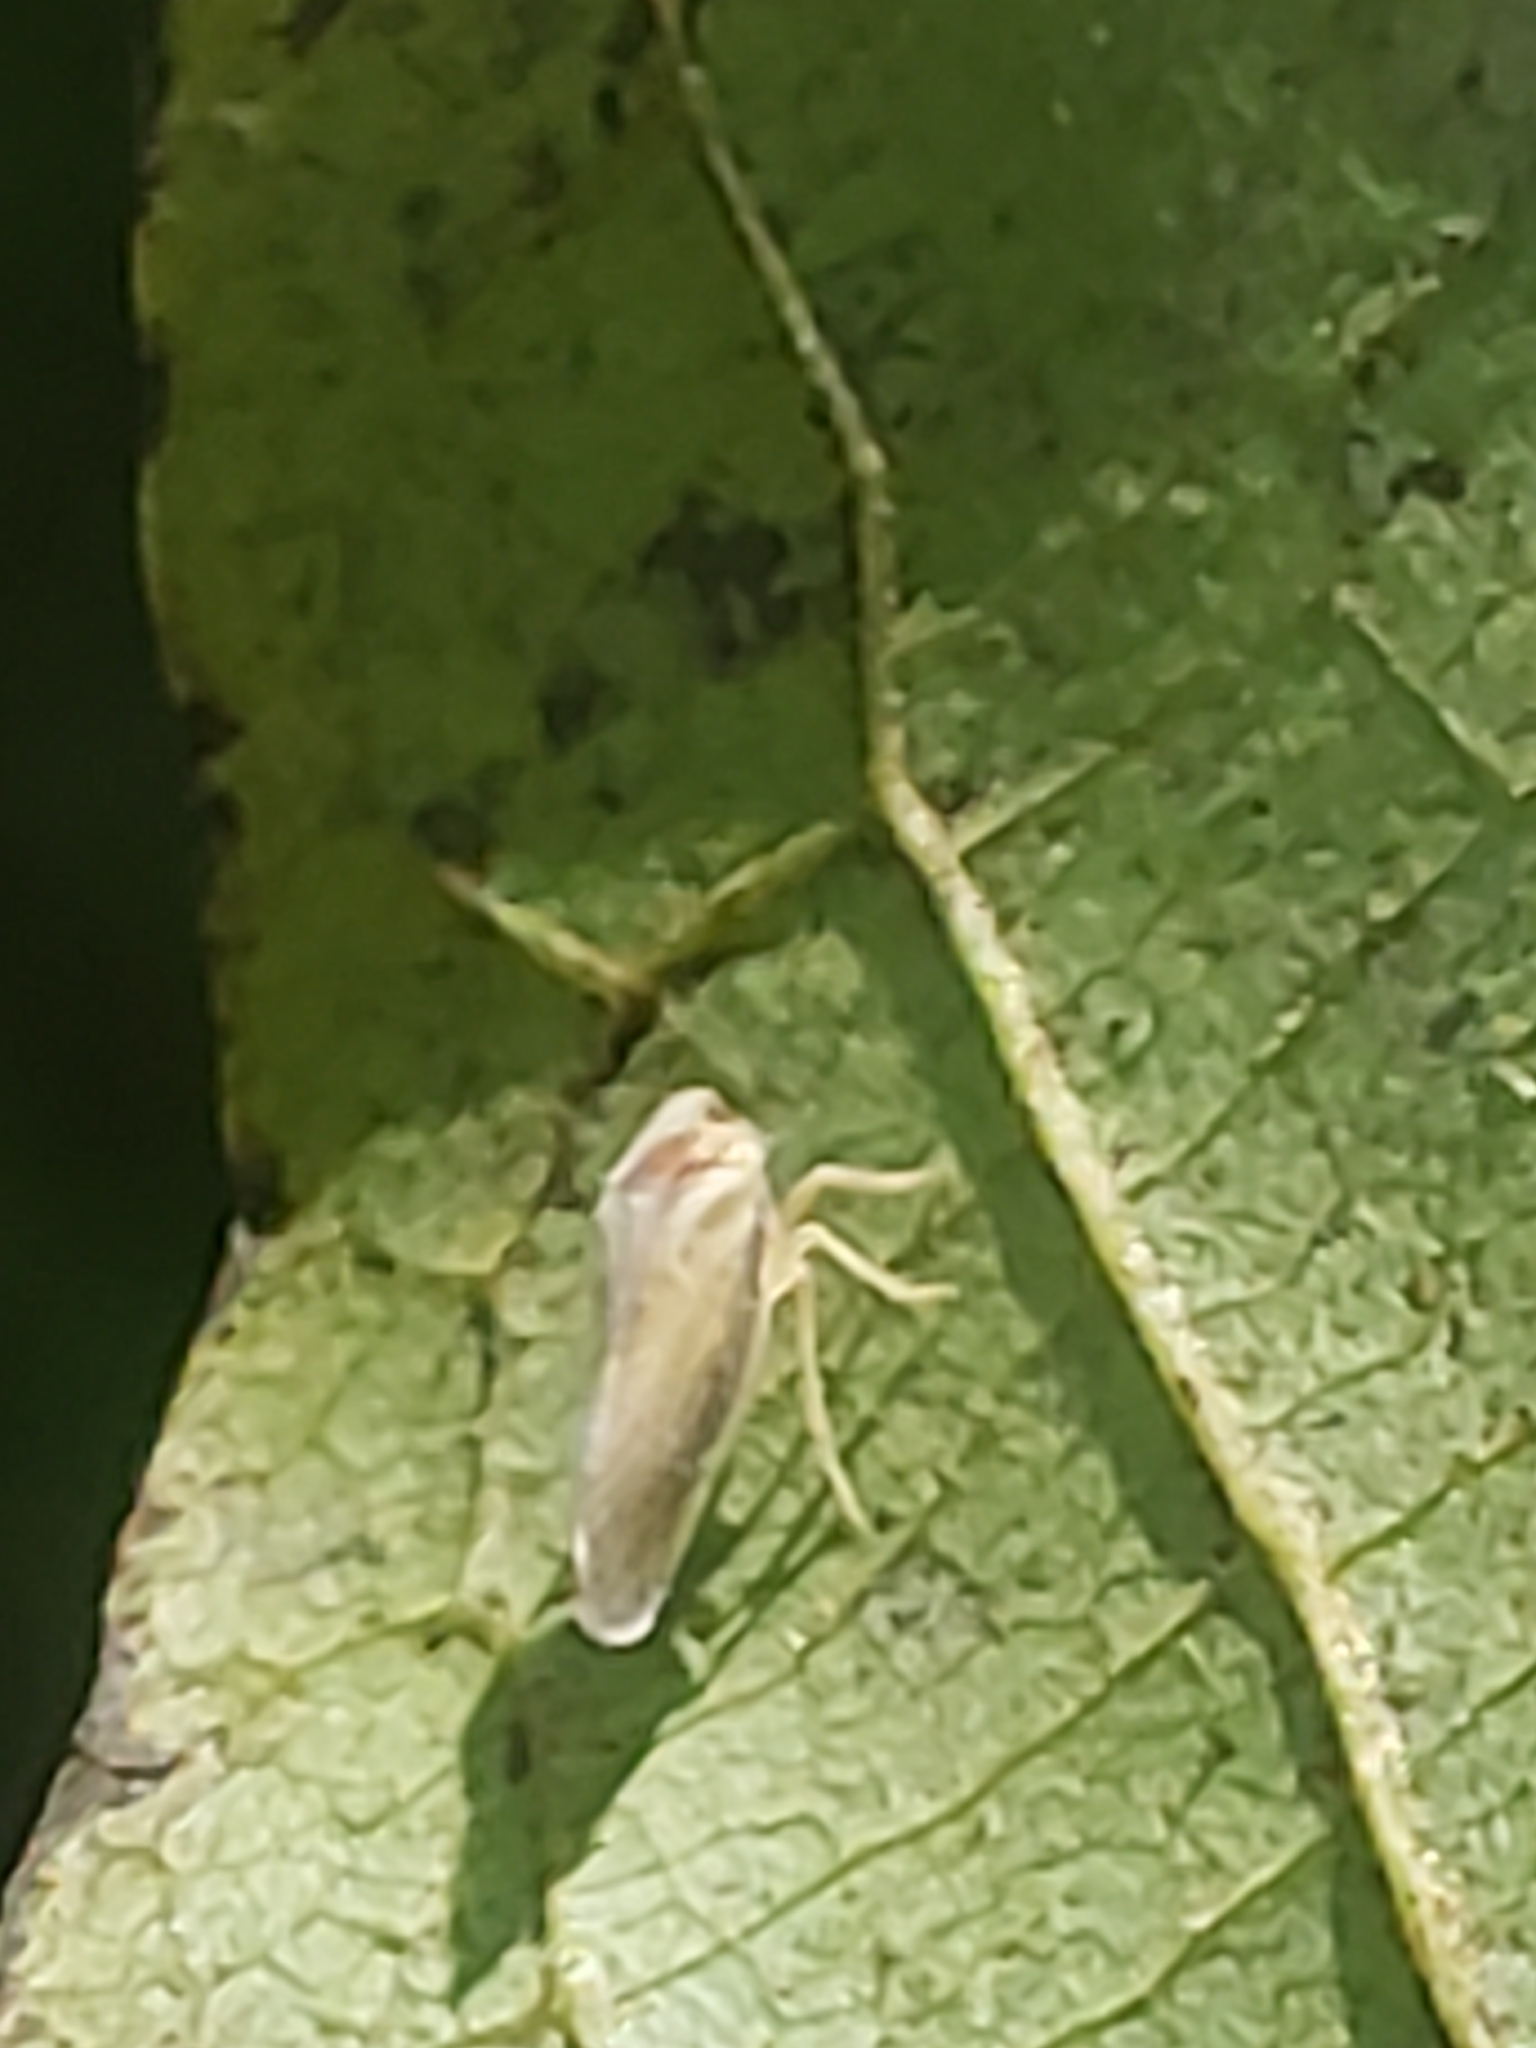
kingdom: Animalia
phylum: Arthropoda
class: Insecta
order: Hemiptera
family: Derbidae
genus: Omolicna
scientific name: Omolicna uhleri
